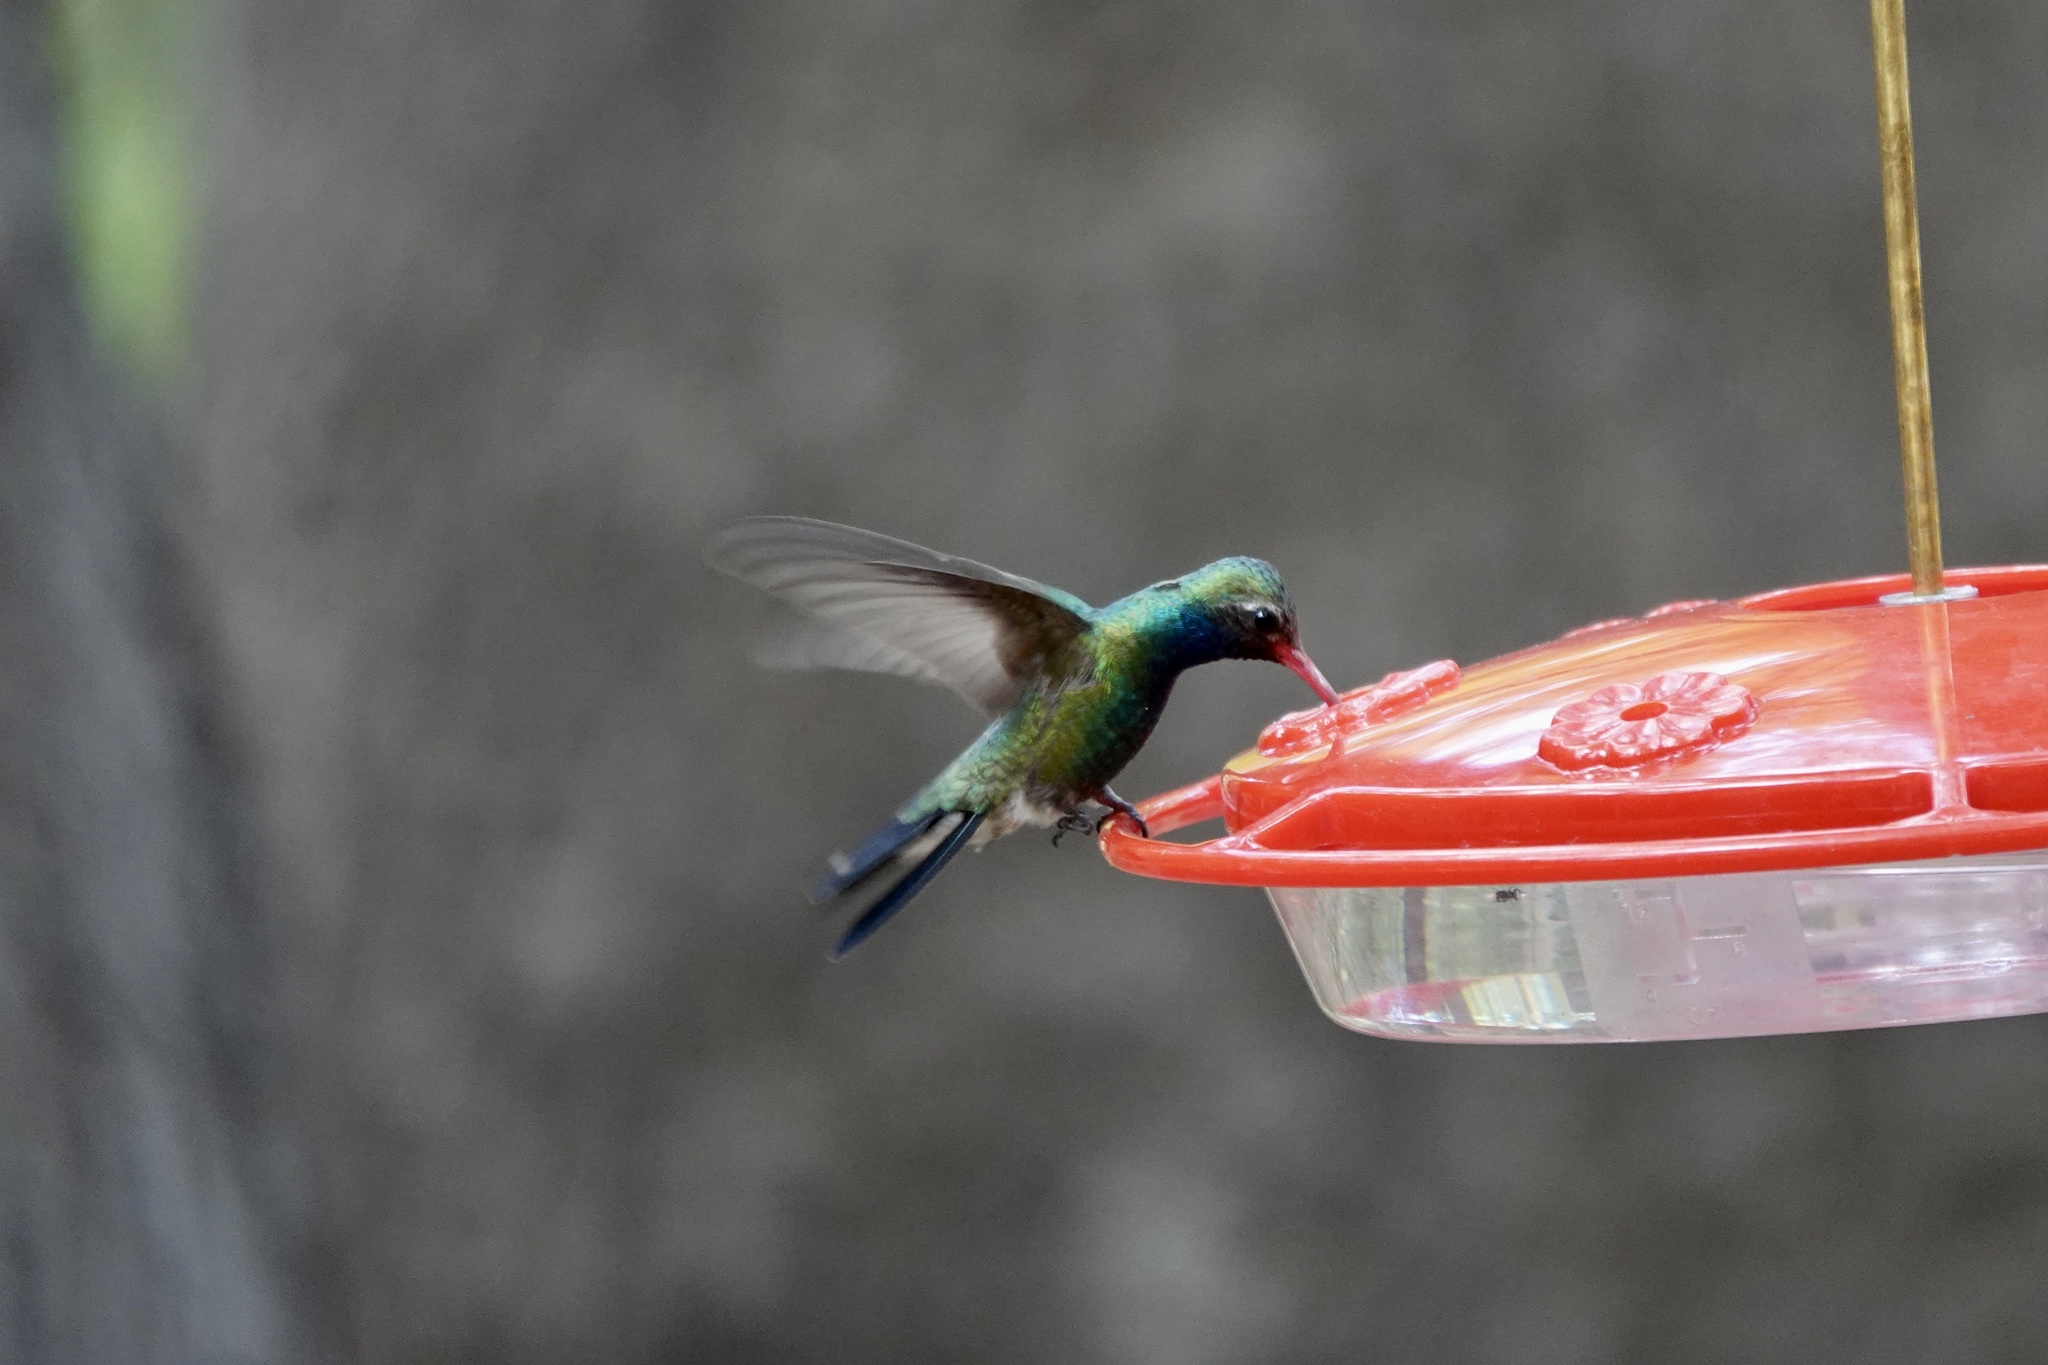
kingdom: Animalia
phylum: Chordata
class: Aves
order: Apodiformes
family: Trochilidae
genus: Cynanthus
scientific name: Cynanthus latirostris
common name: Broad-billed hummingbird
